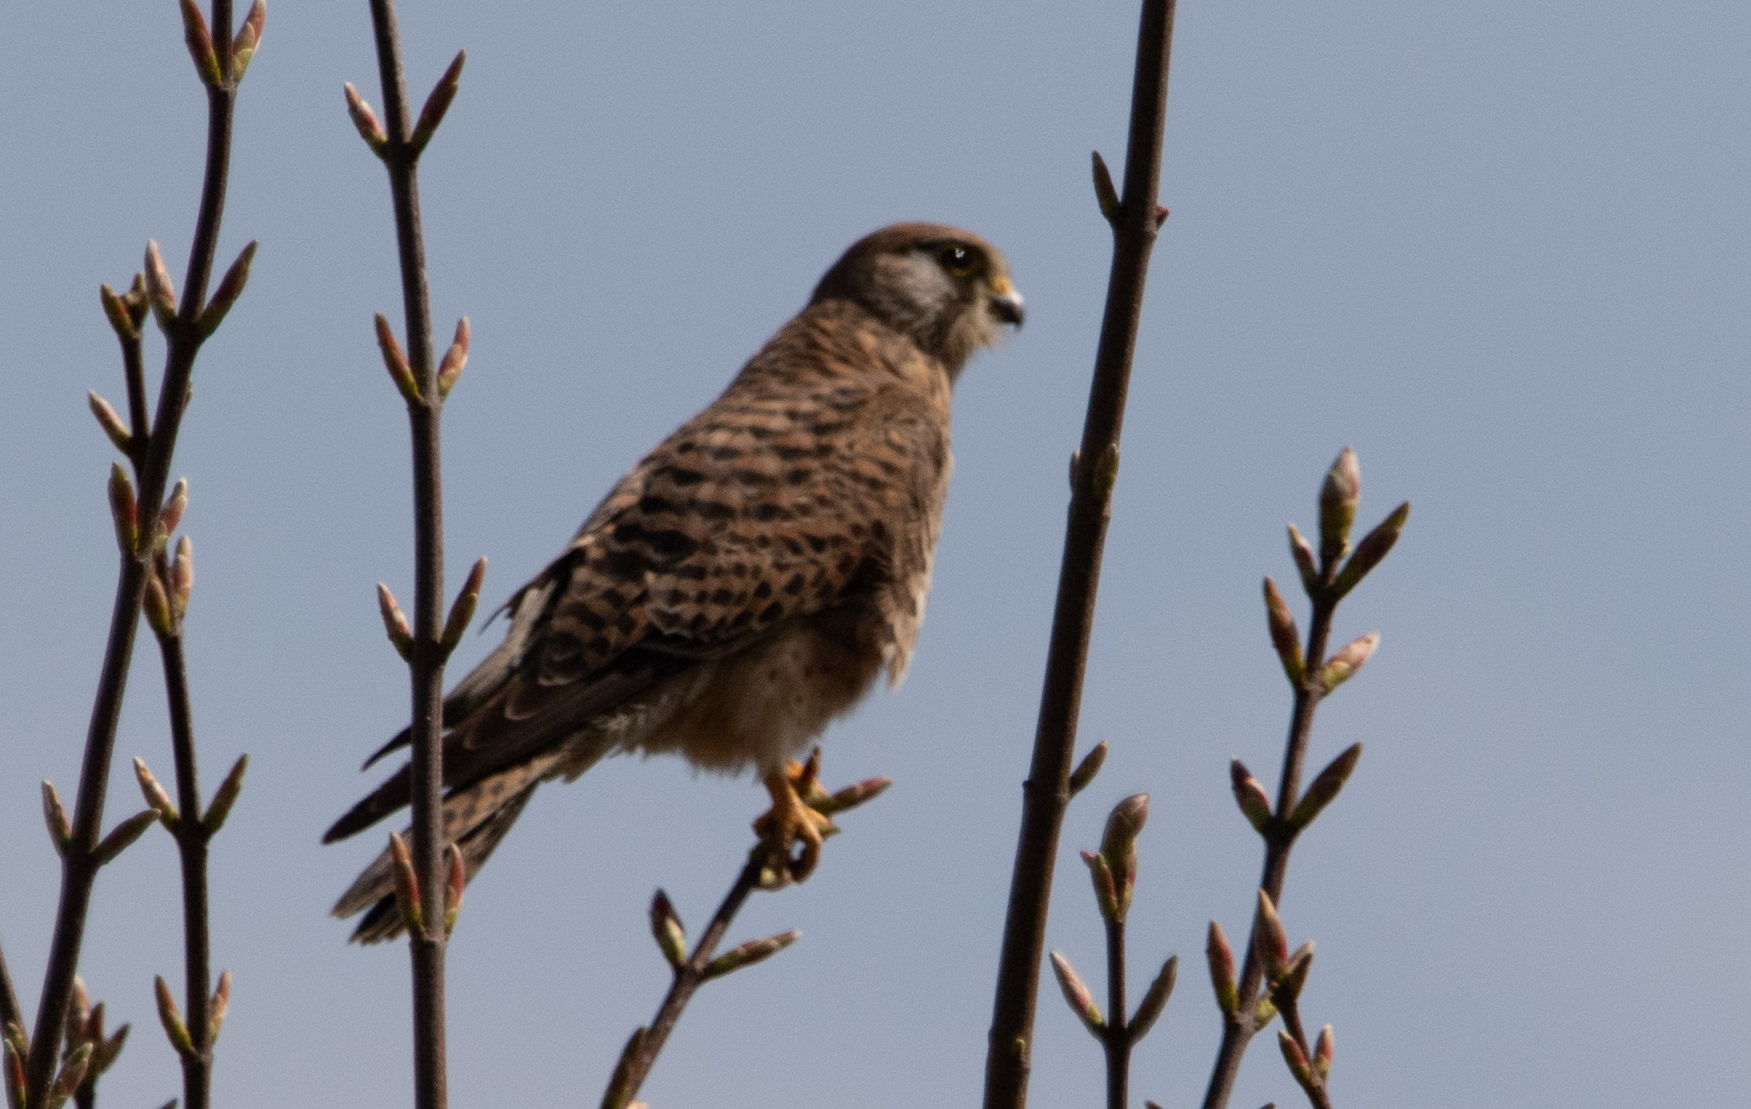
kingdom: Animalia
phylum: Chordata
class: Aves
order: Falconiformes
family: Falconidae
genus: Falco
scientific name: Falco tinnunculus
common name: Common kestrel
